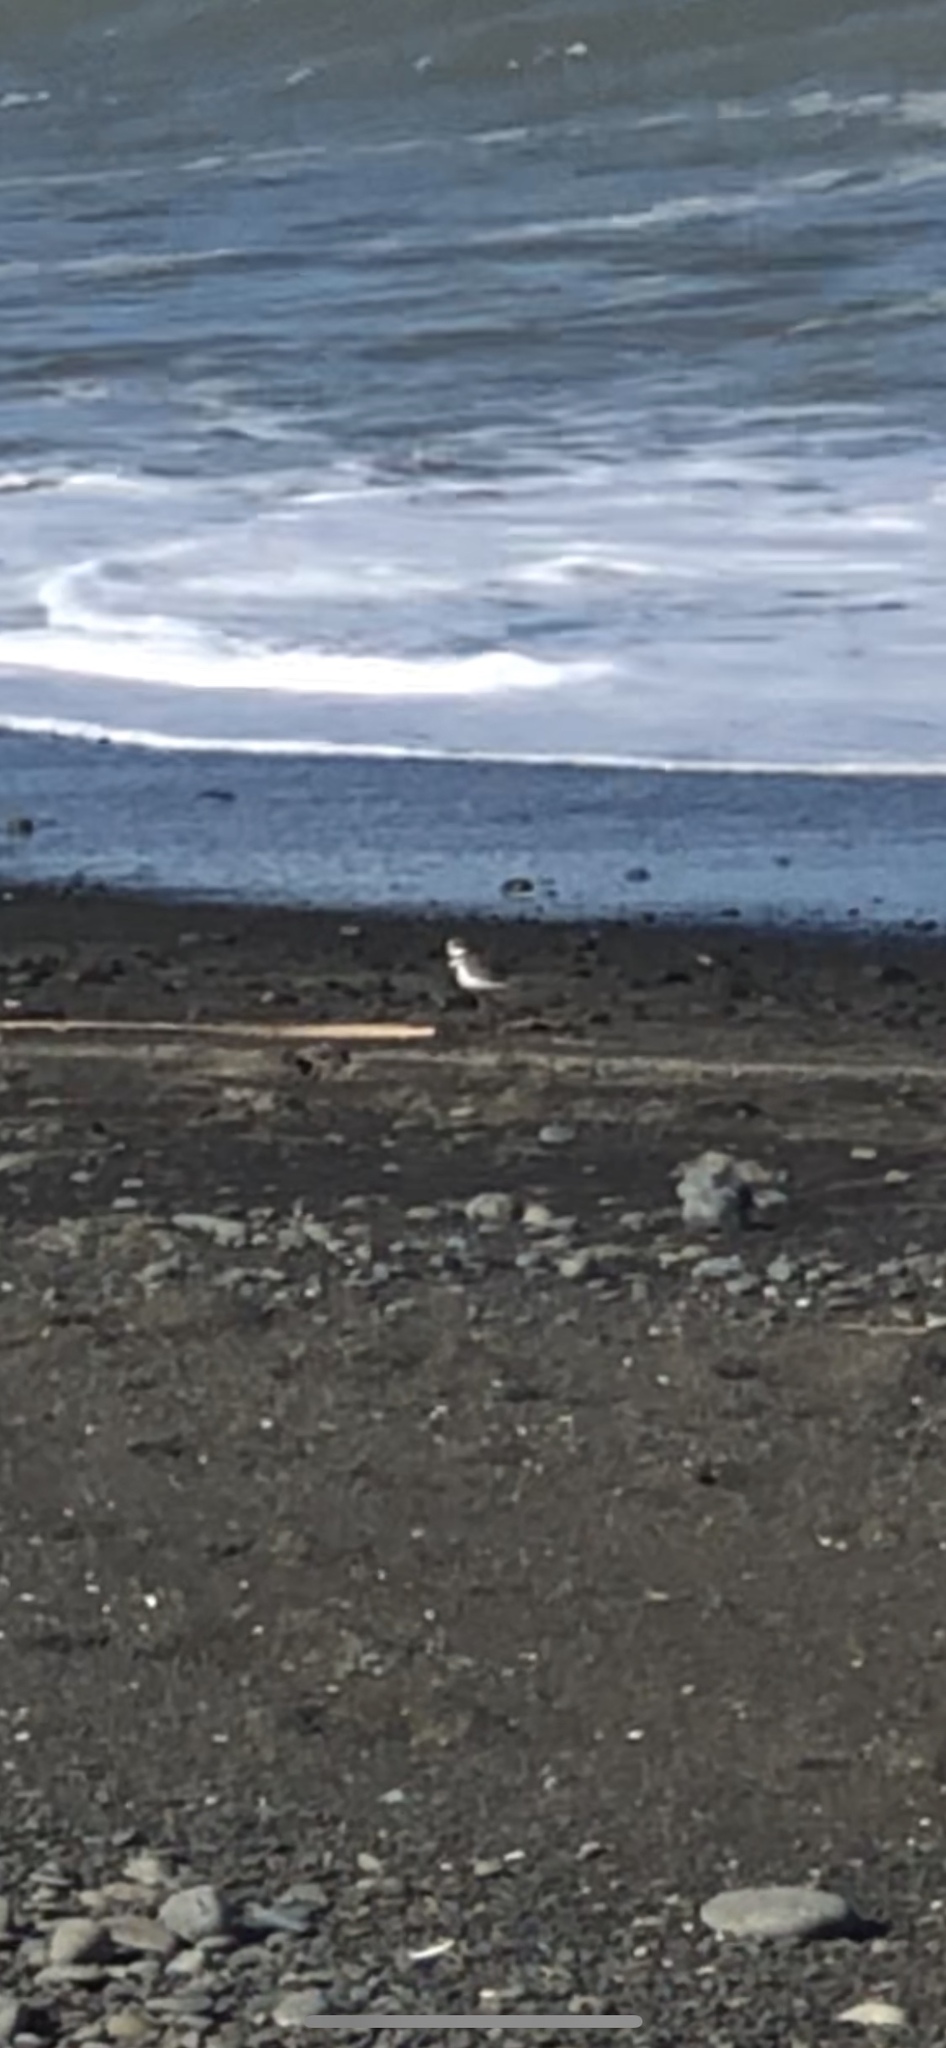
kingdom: Animalia
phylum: Chordata
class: Aves
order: Charadriiformes
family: Charadriidae
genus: Anarhynchus
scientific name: Anarhynchus
